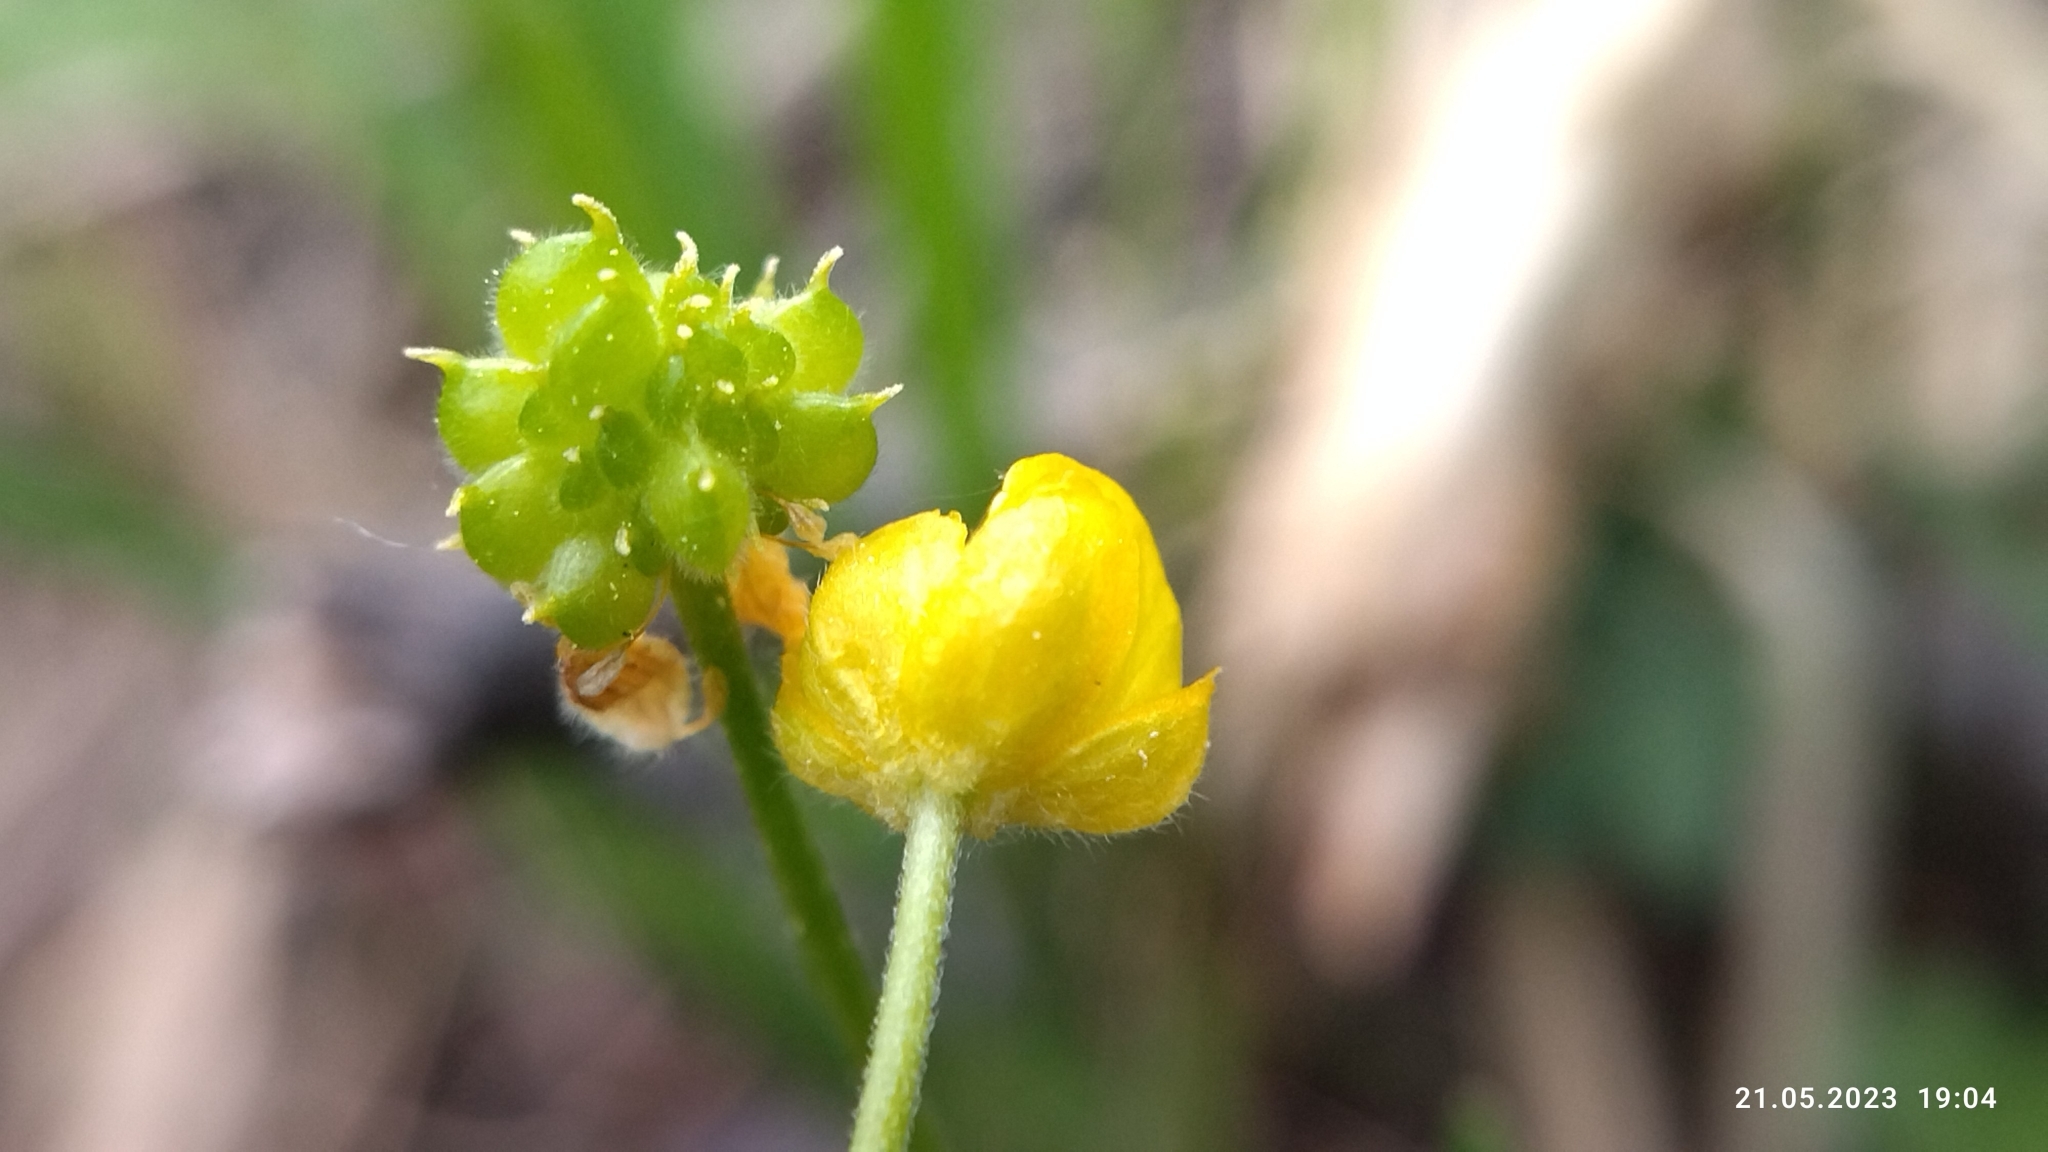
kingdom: Plantae
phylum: Tracheophyta
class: Magnoliopsida
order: Ranunculales
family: Ranunculaceae
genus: Ranunculus
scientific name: Ranunculus auricomus
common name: Goldilocks buttercup
